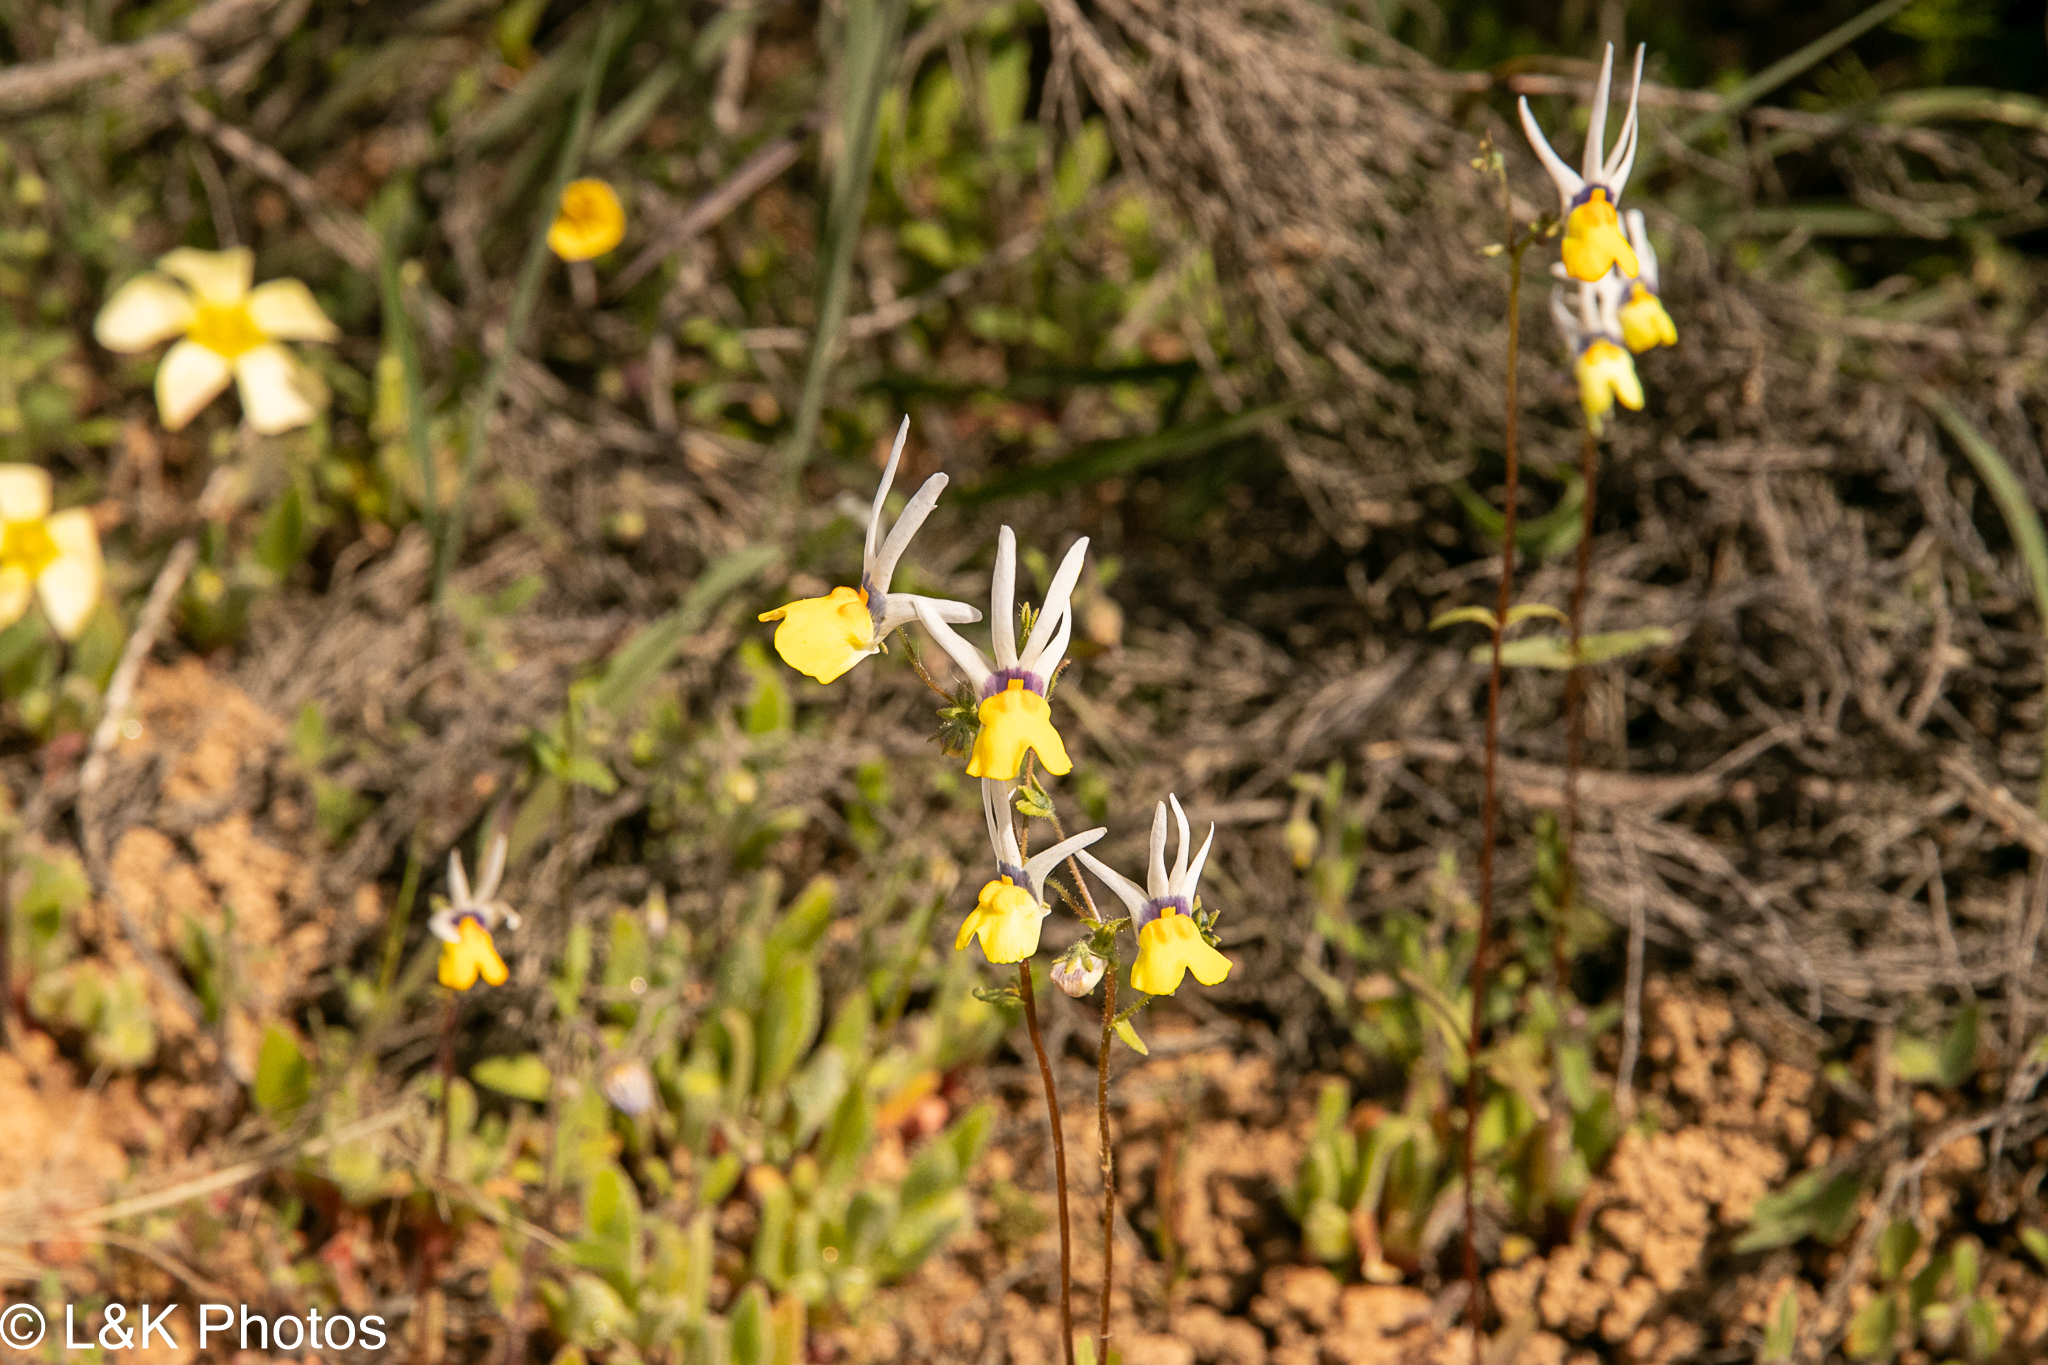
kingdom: Plantae
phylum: Tracheophyta
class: Magnoliopsida
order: Lamiales
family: Scrophulariaceae
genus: Nemesia
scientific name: Nemesia cheiranthus
